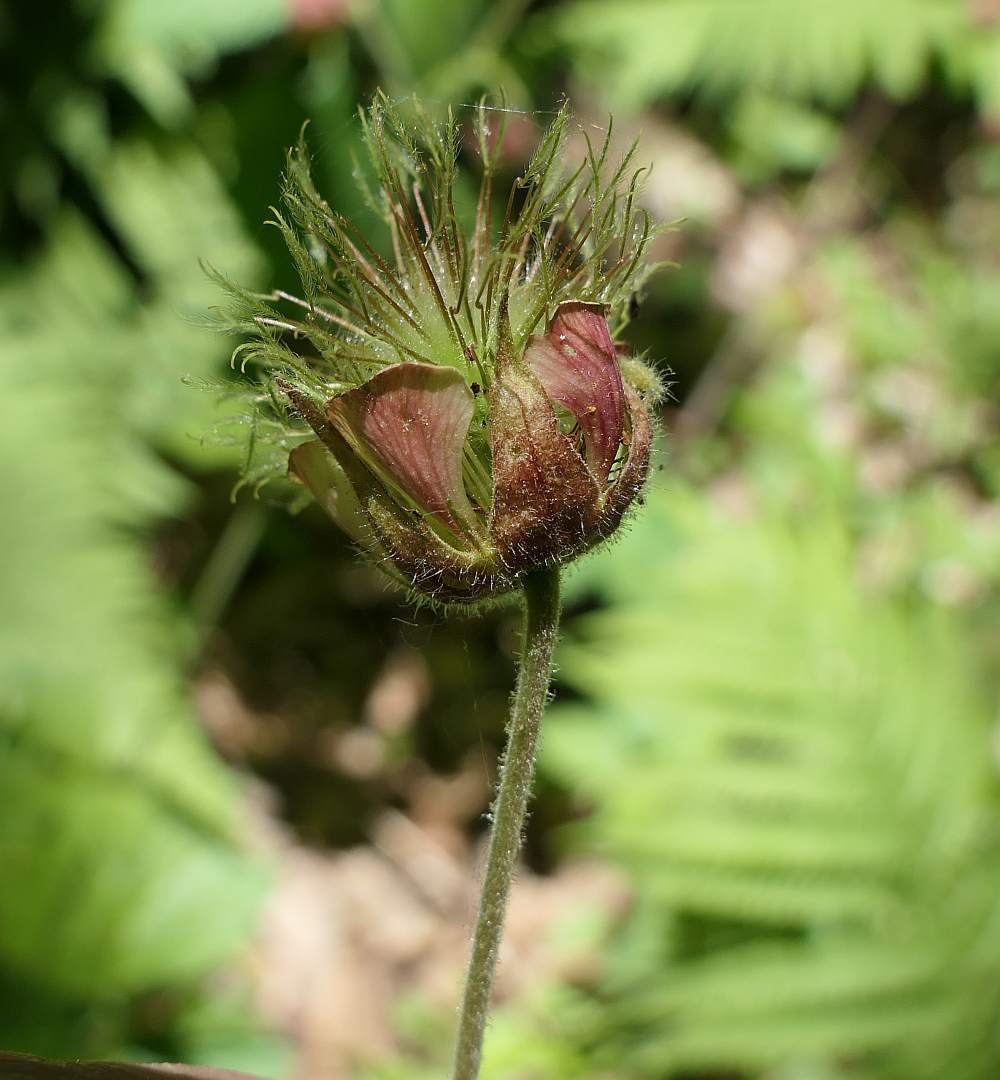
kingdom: Plantae
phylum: Tracheophyta
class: Magnoliopsida
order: Rosales
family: Rosaceae
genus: Geum
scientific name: Geum rivale
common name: Water avens
